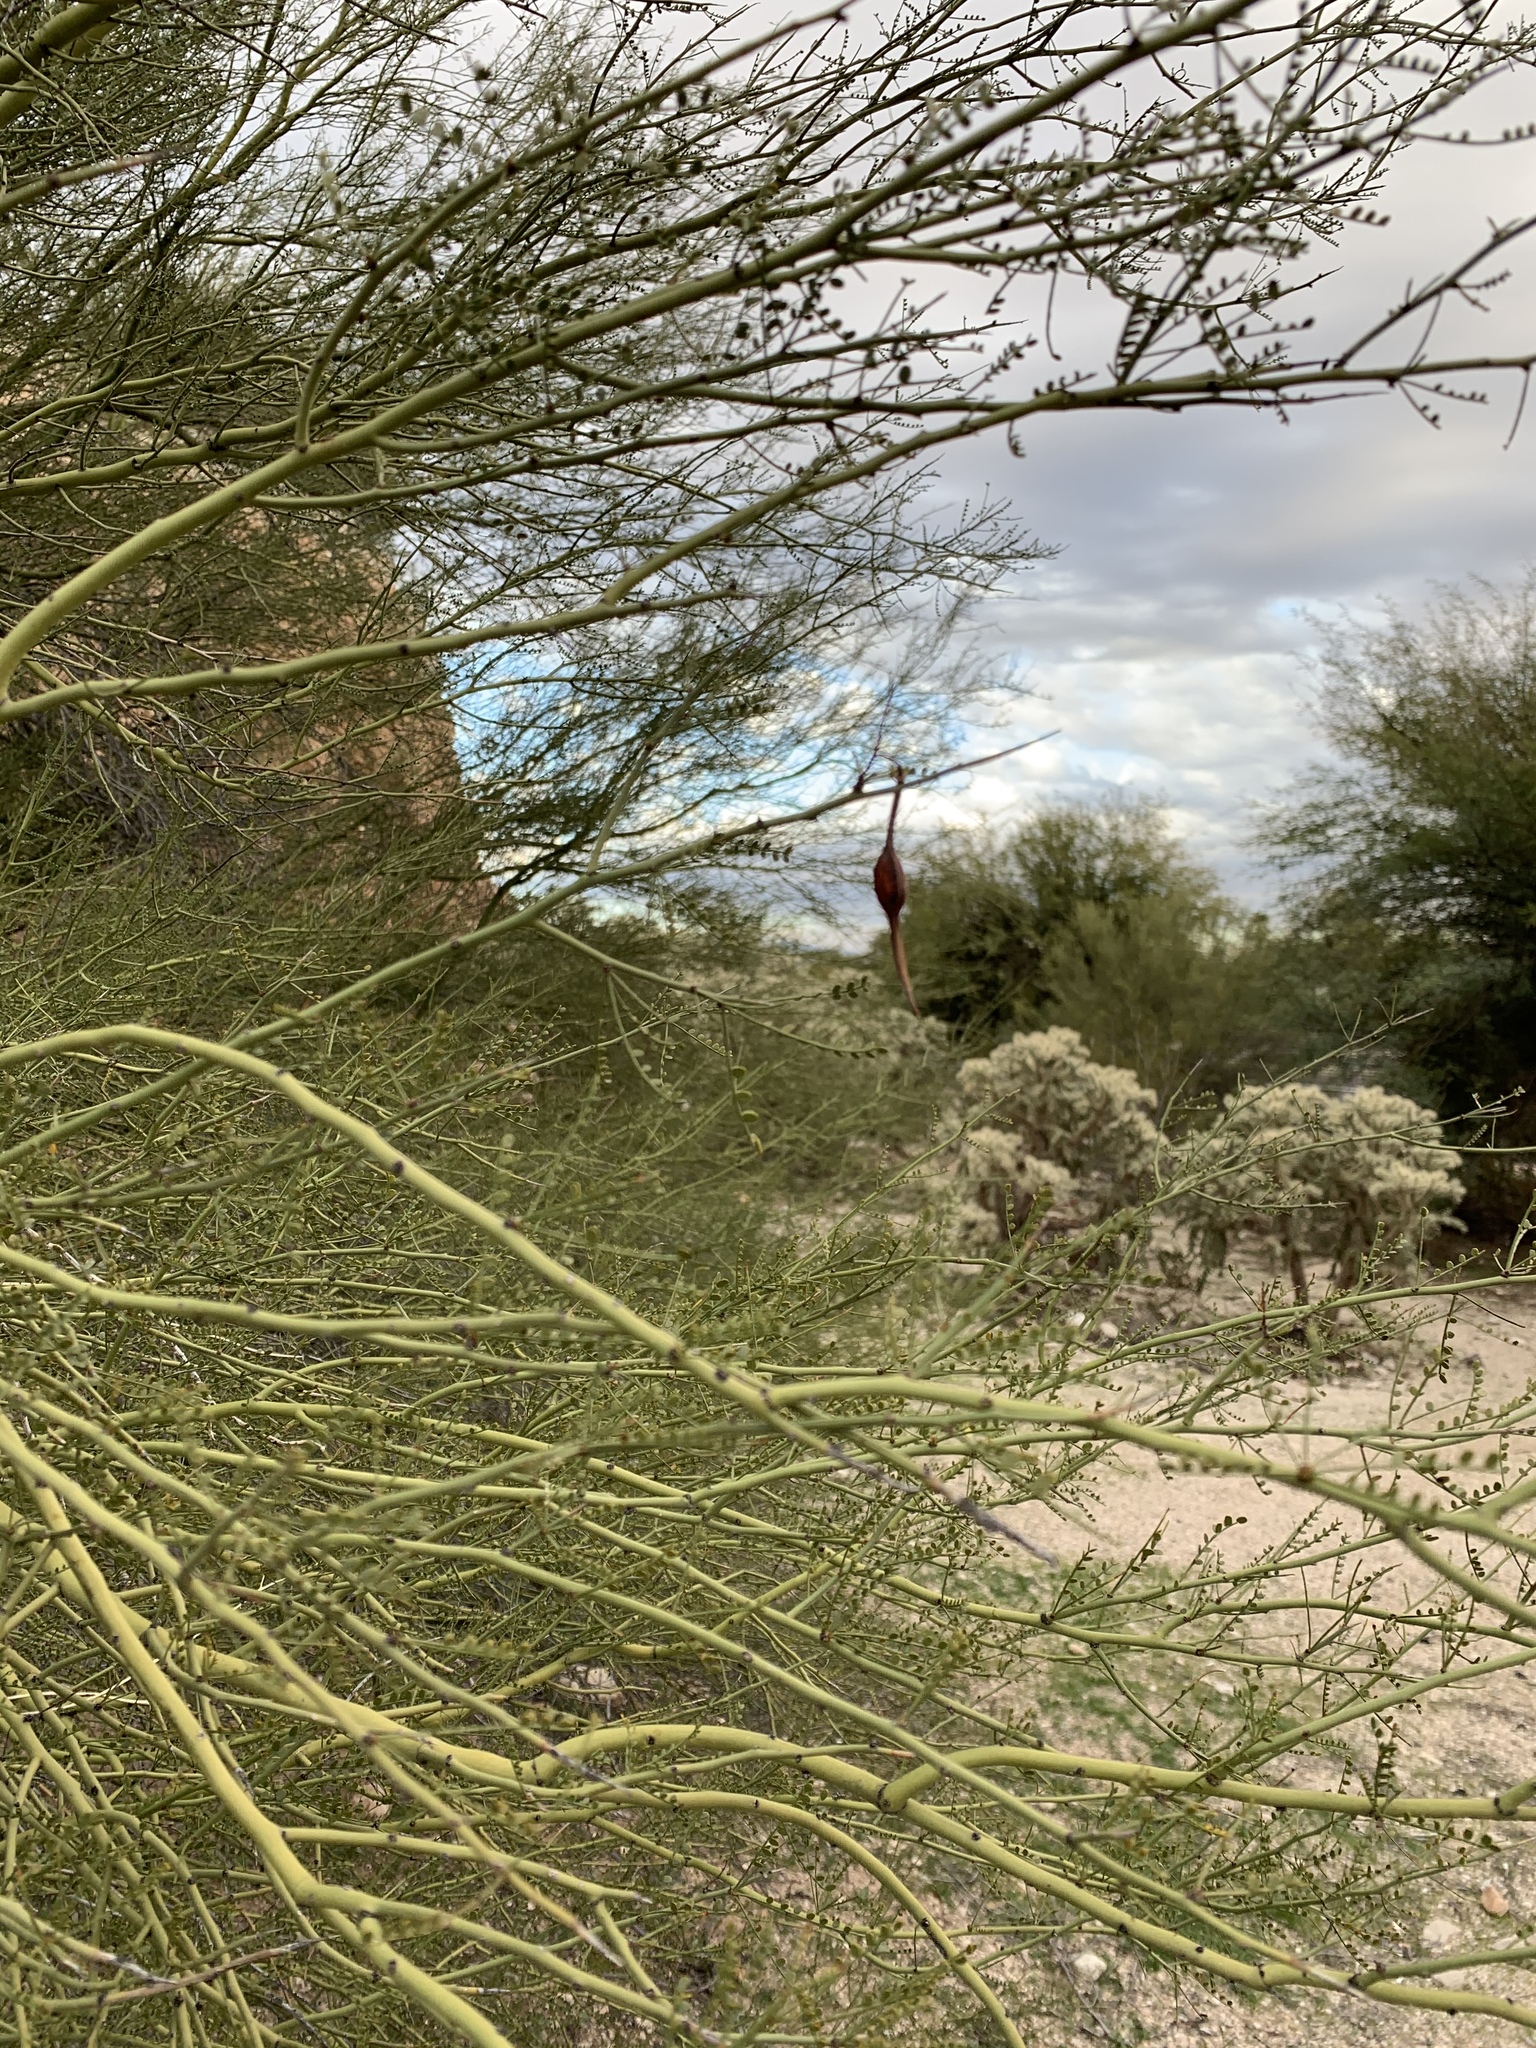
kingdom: Plantae
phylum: Tracheophyta
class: Magnoliopsida
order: Fabales
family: Fabaceae
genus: Parkinsonia
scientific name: Parkinsonia microphylla
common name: Yellow paloverde
